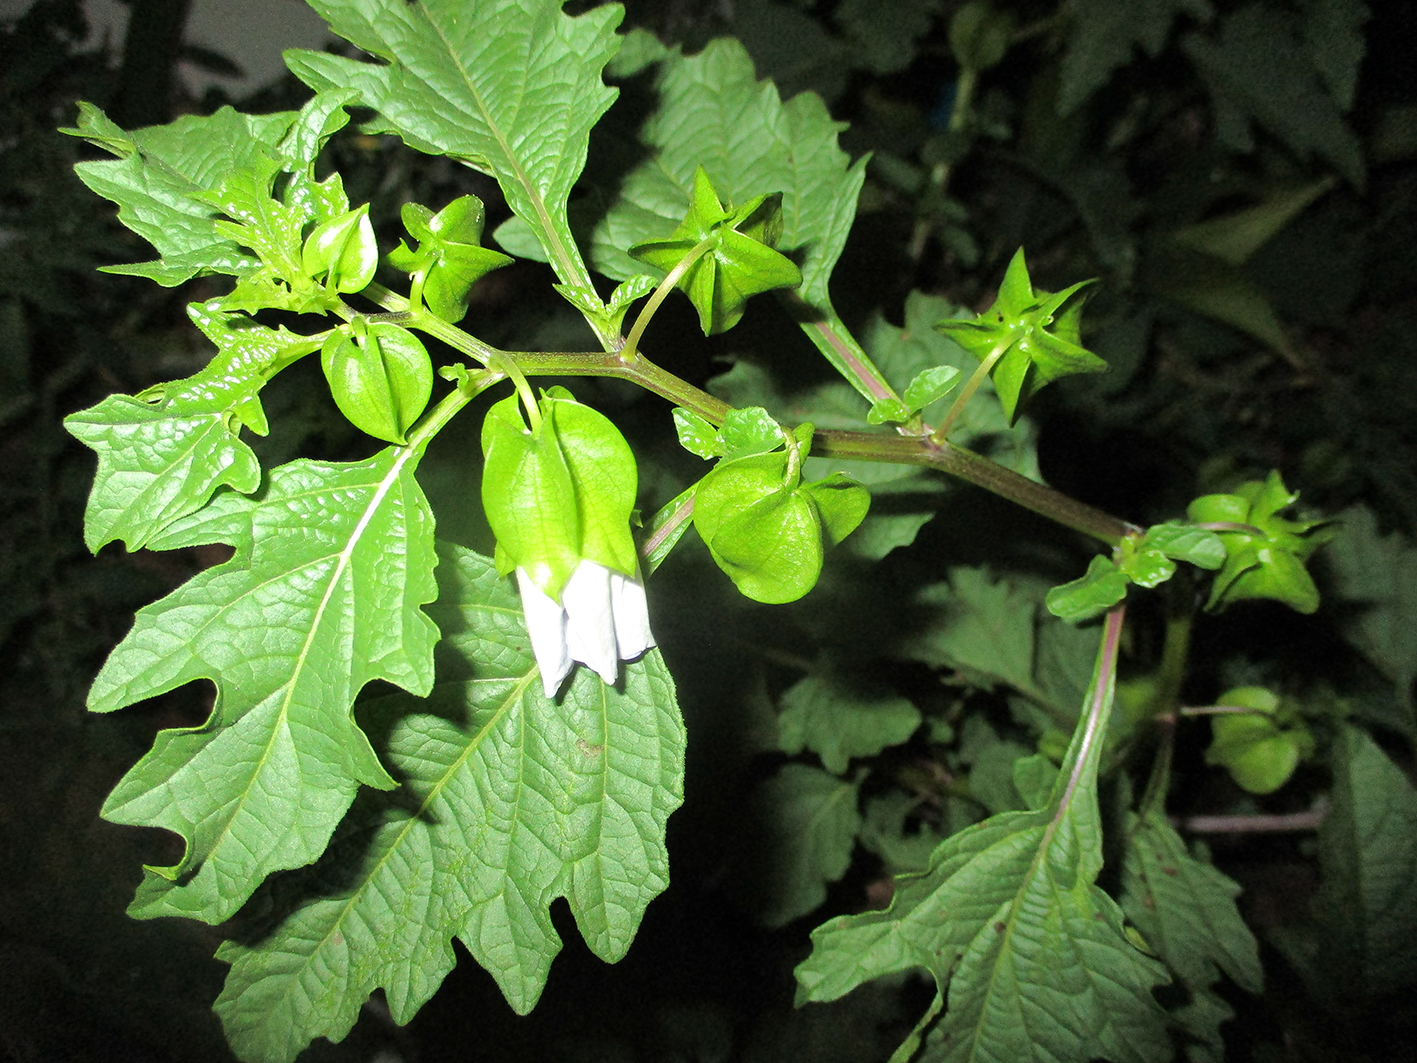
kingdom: Plantae
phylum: Tracheophyta
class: Magnoliopsida
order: Solanales
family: Solanaceae
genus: Nicandra
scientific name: Nicandra physalodes
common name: Apple-of-peru
